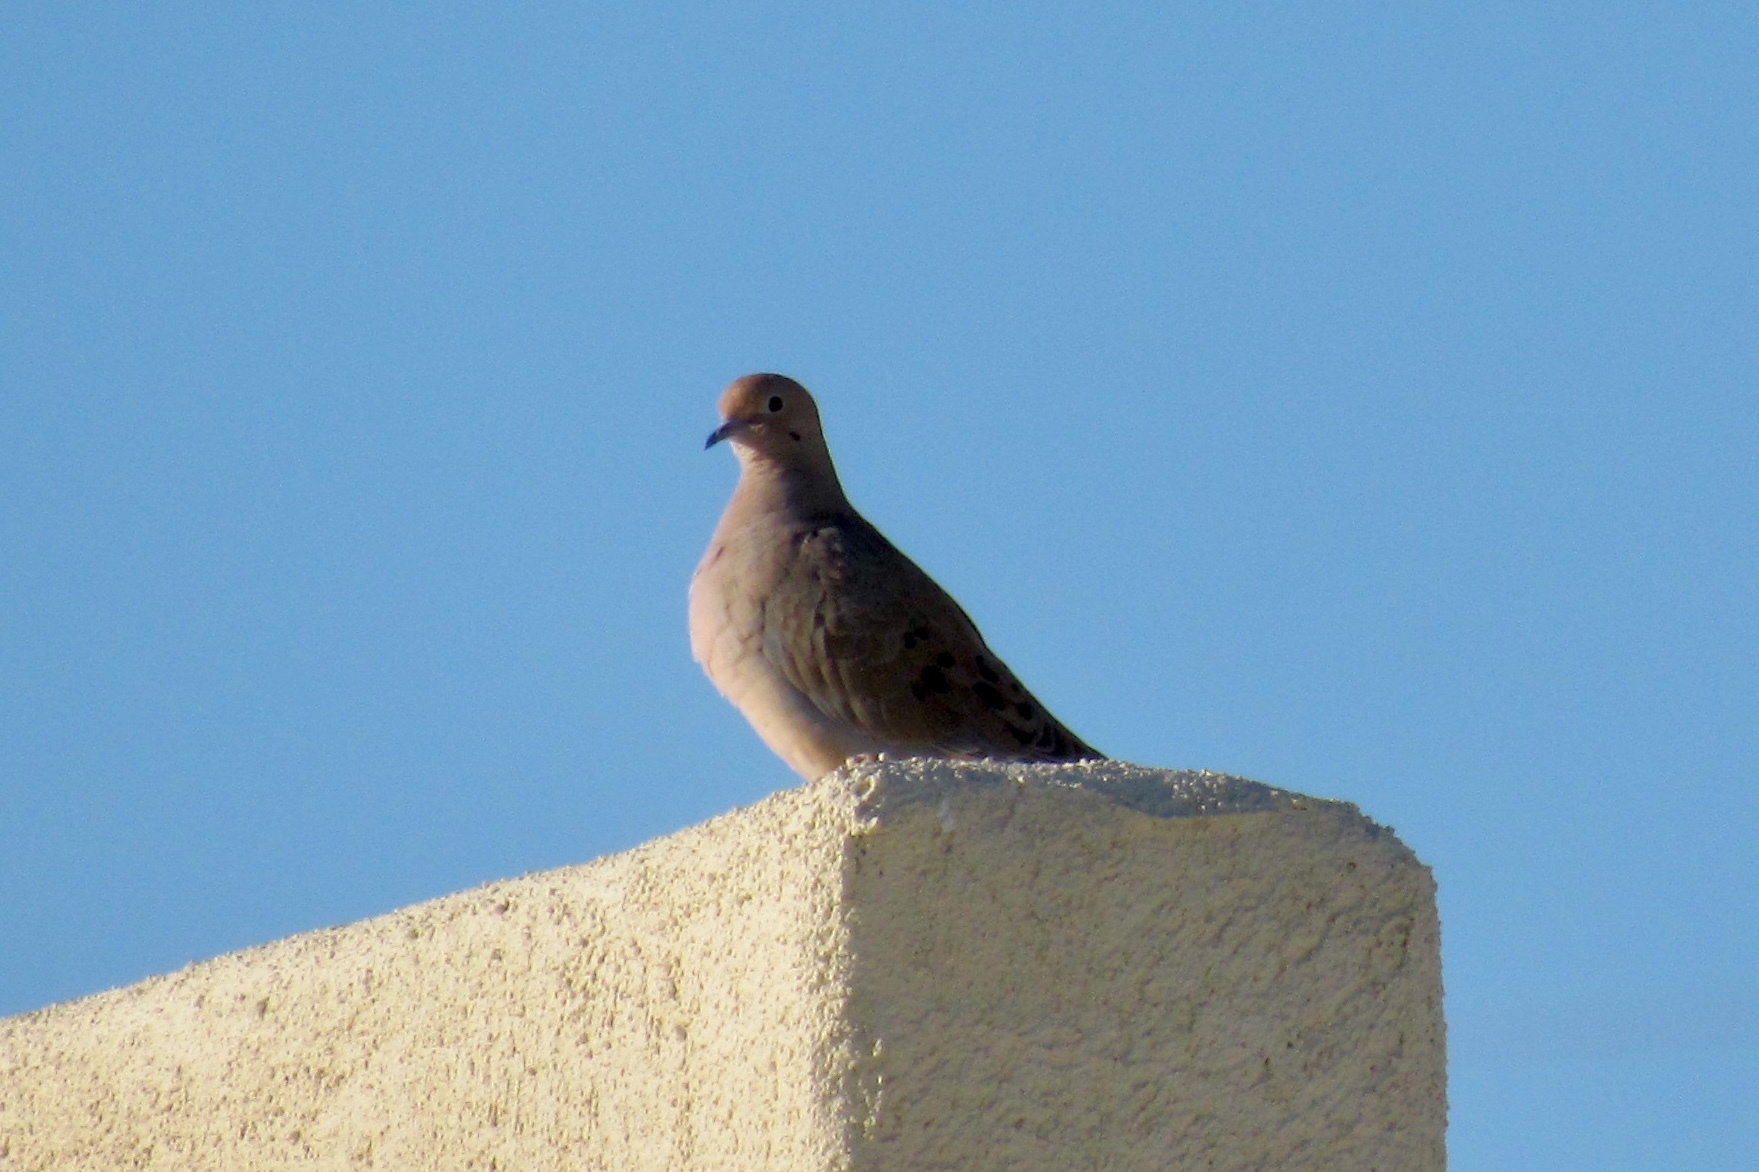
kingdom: Animalia
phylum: Chordata
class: Aves
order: Columbiformes
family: Columbidae
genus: Zenaida
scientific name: Zenaida macroura
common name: Mourning dove
